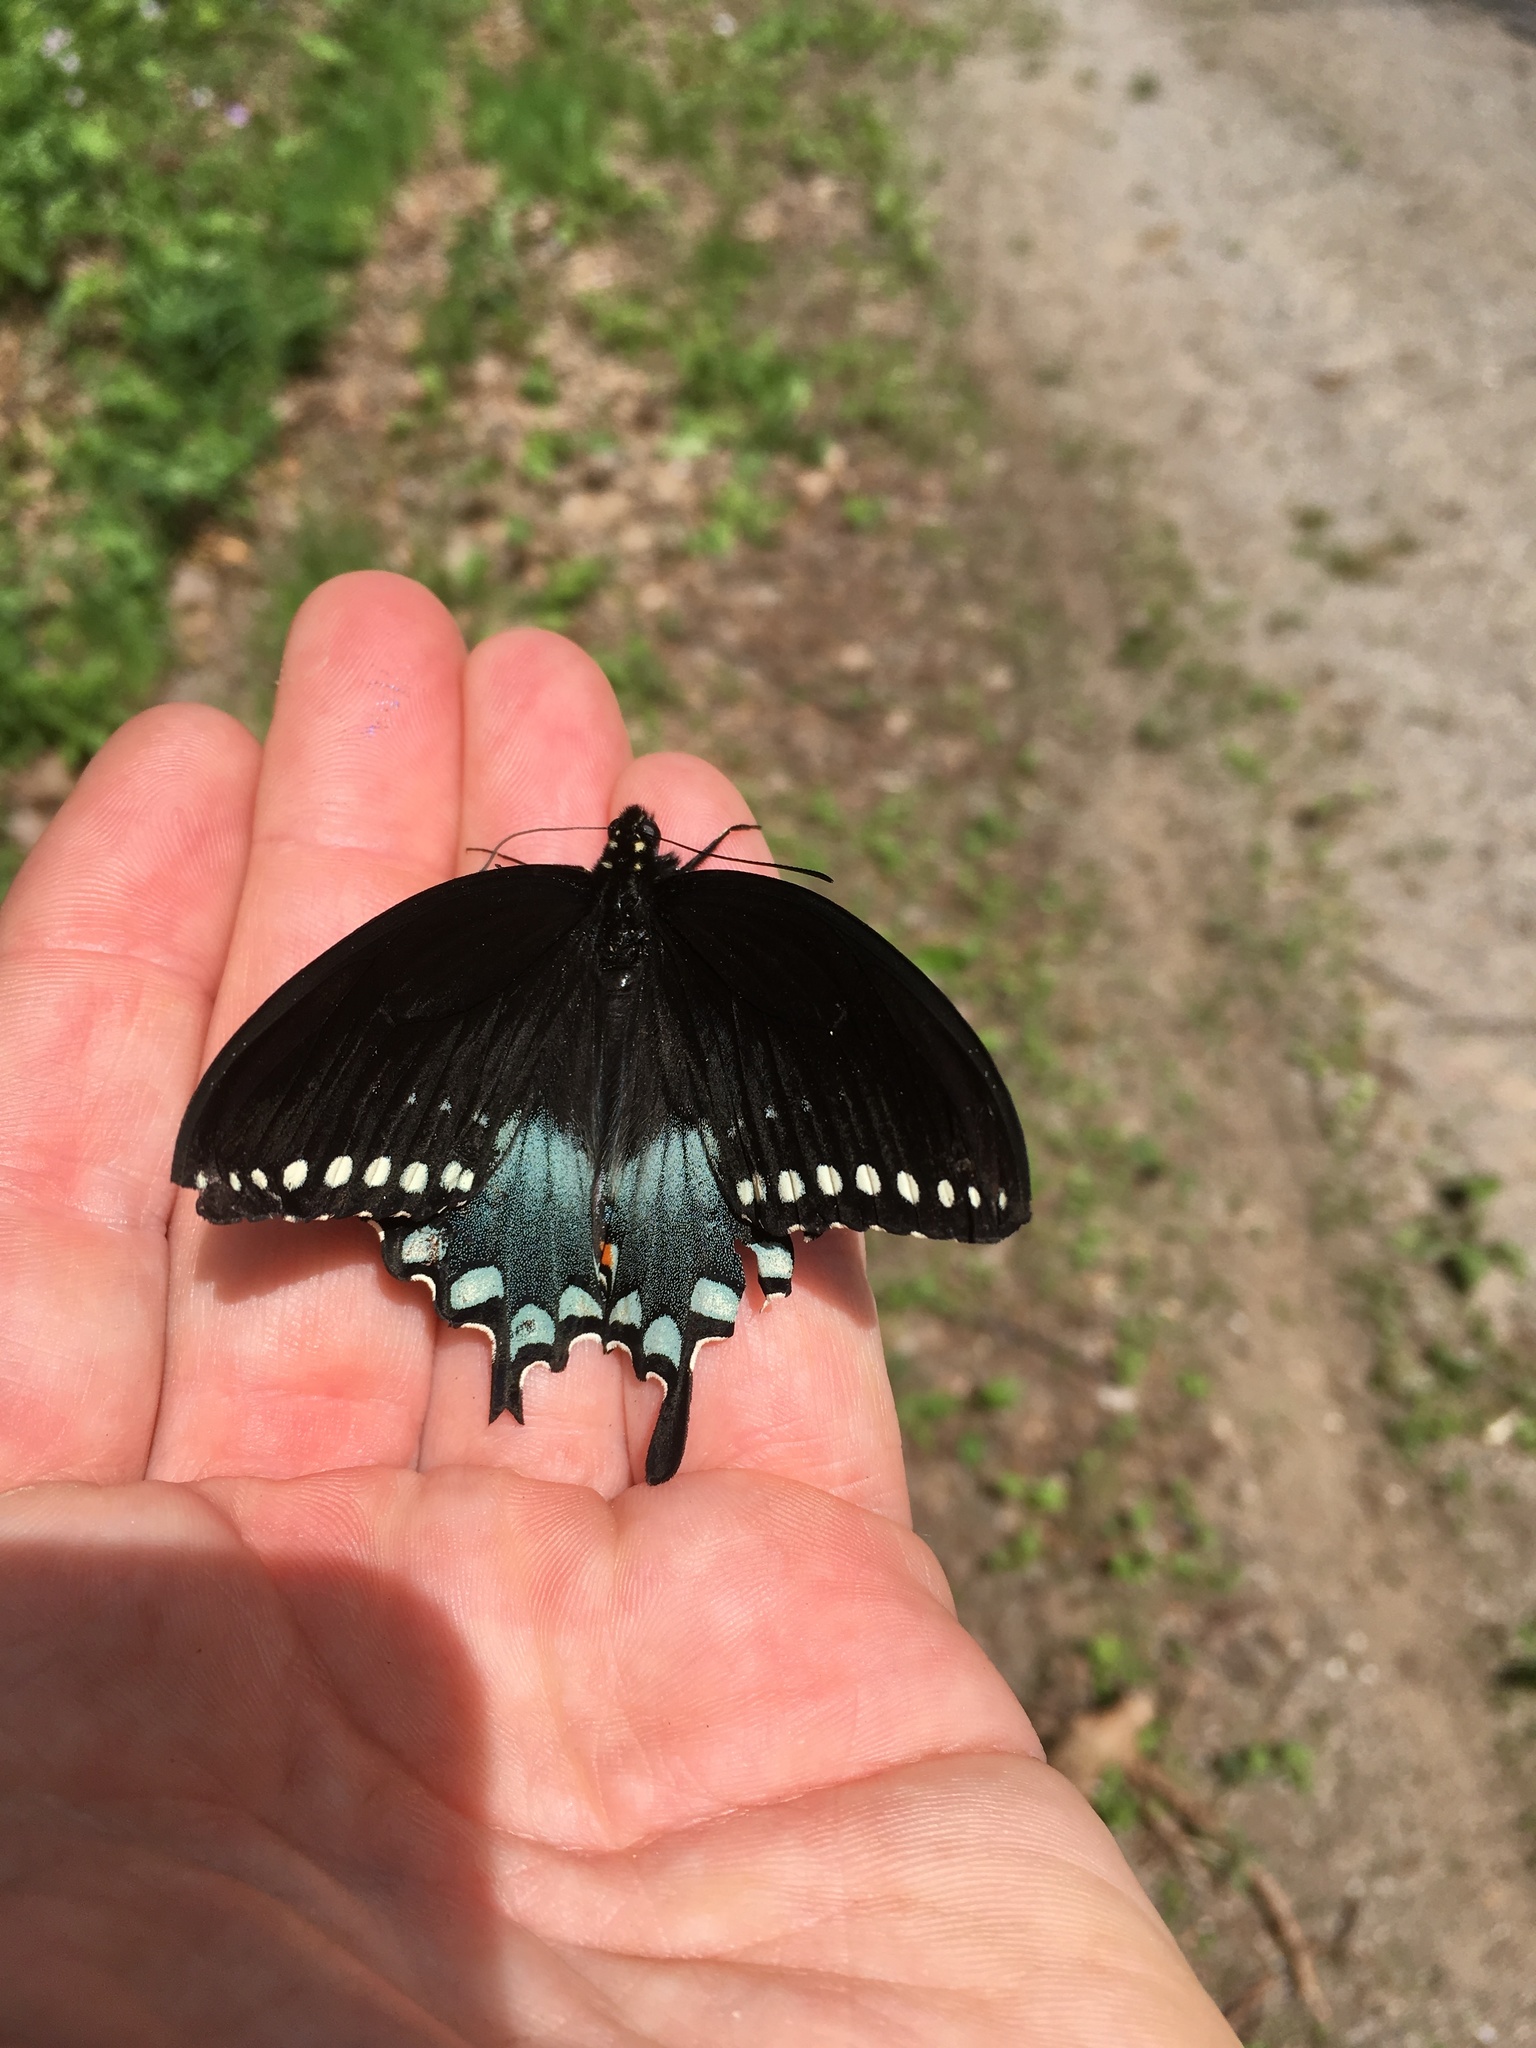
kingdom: Animalia
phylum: Arthropoda
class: Insecta
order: Lepidoptera
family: Papilionidae
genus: Papilio
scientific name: Papilio troilus
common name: Spicebush swallowtail
